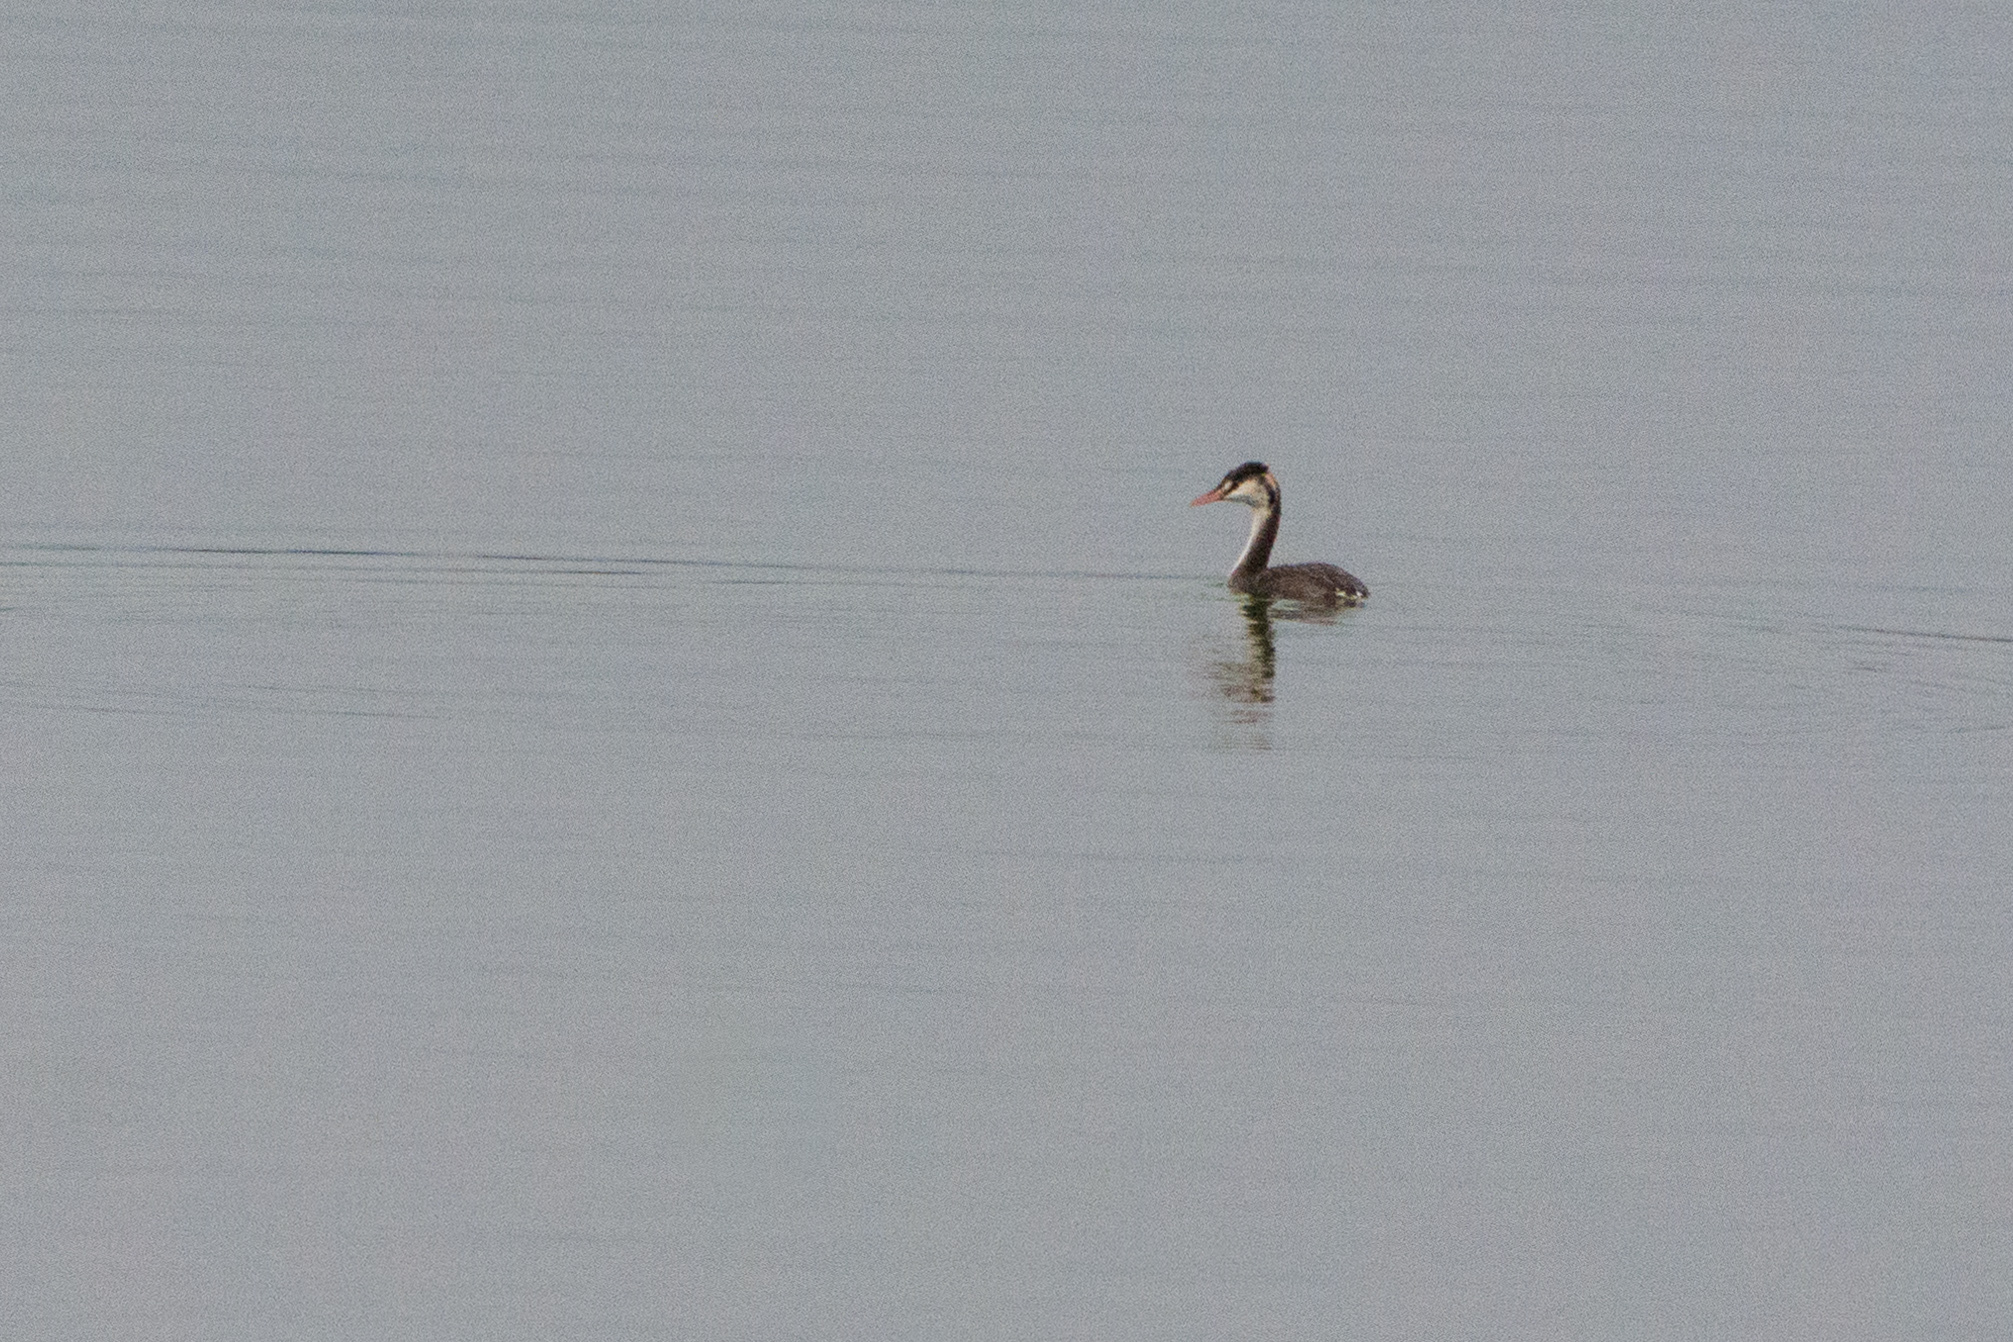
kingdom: Animalia
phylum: Chordata
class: Aves
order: Podicipediformes
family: Podicipedidae
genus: Podiceps
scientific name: Podiceps cristatus
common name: Great crested grebe
